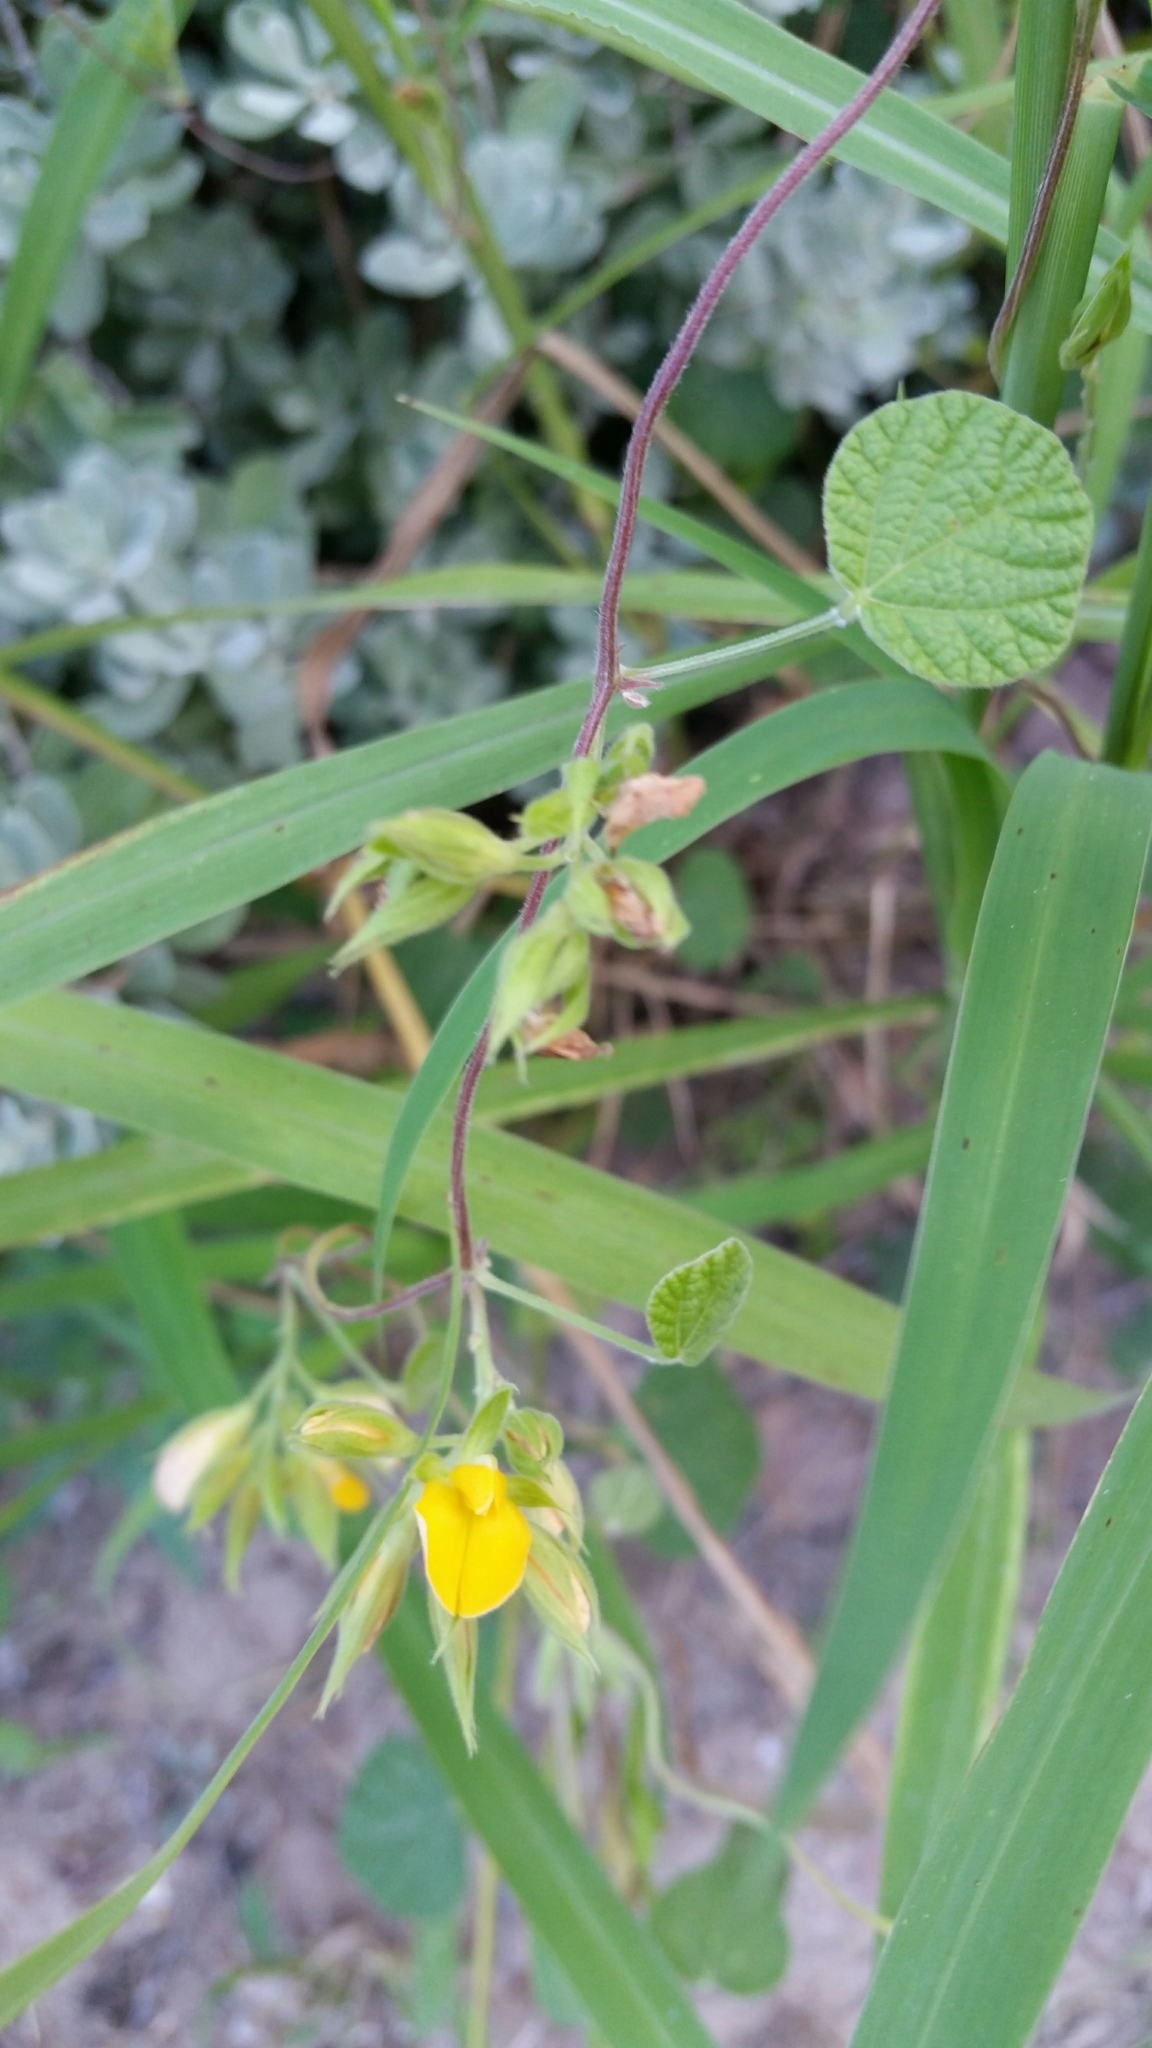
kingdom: Plantae
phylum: Tracheophyta
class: Magnoliopsida
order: Fabales
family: Fabaceae
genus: Rhynchosia
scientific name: Rhynchosia americana
